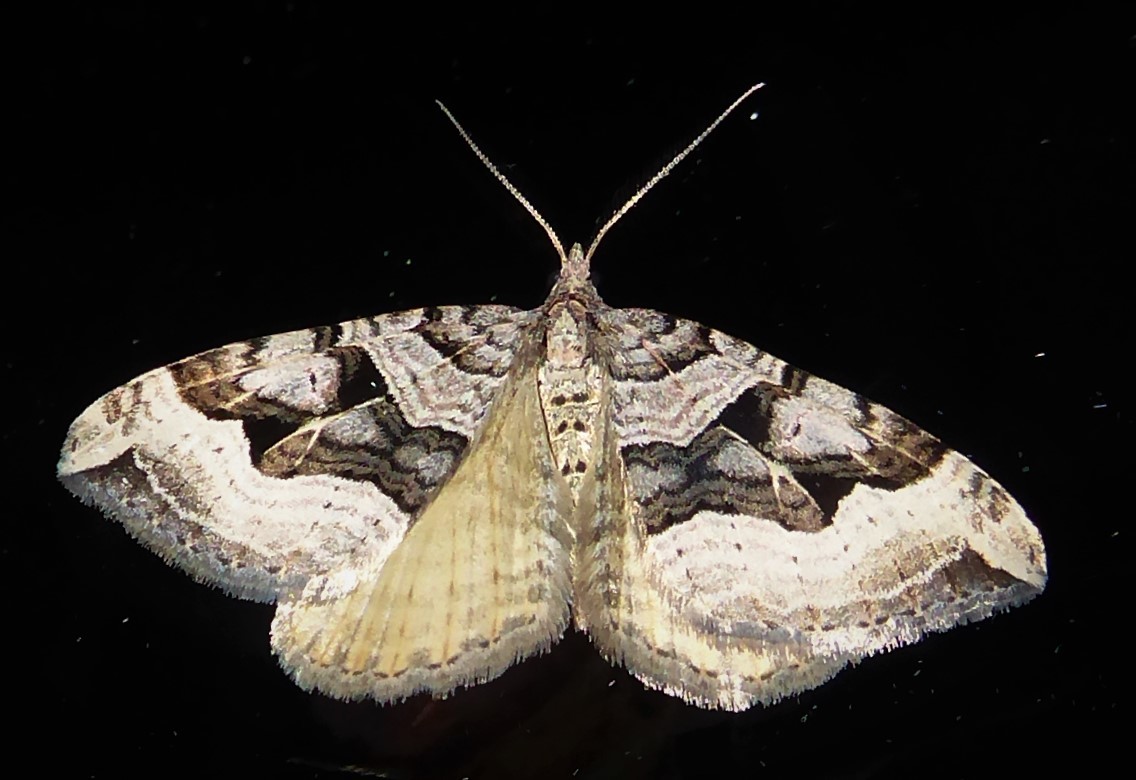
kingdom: Animalia
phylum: Arthropoda
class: Insecta
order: Lepidoptera
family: Geometridae
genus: Xanthorhoe
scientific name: Xanthorhoe semifissata
